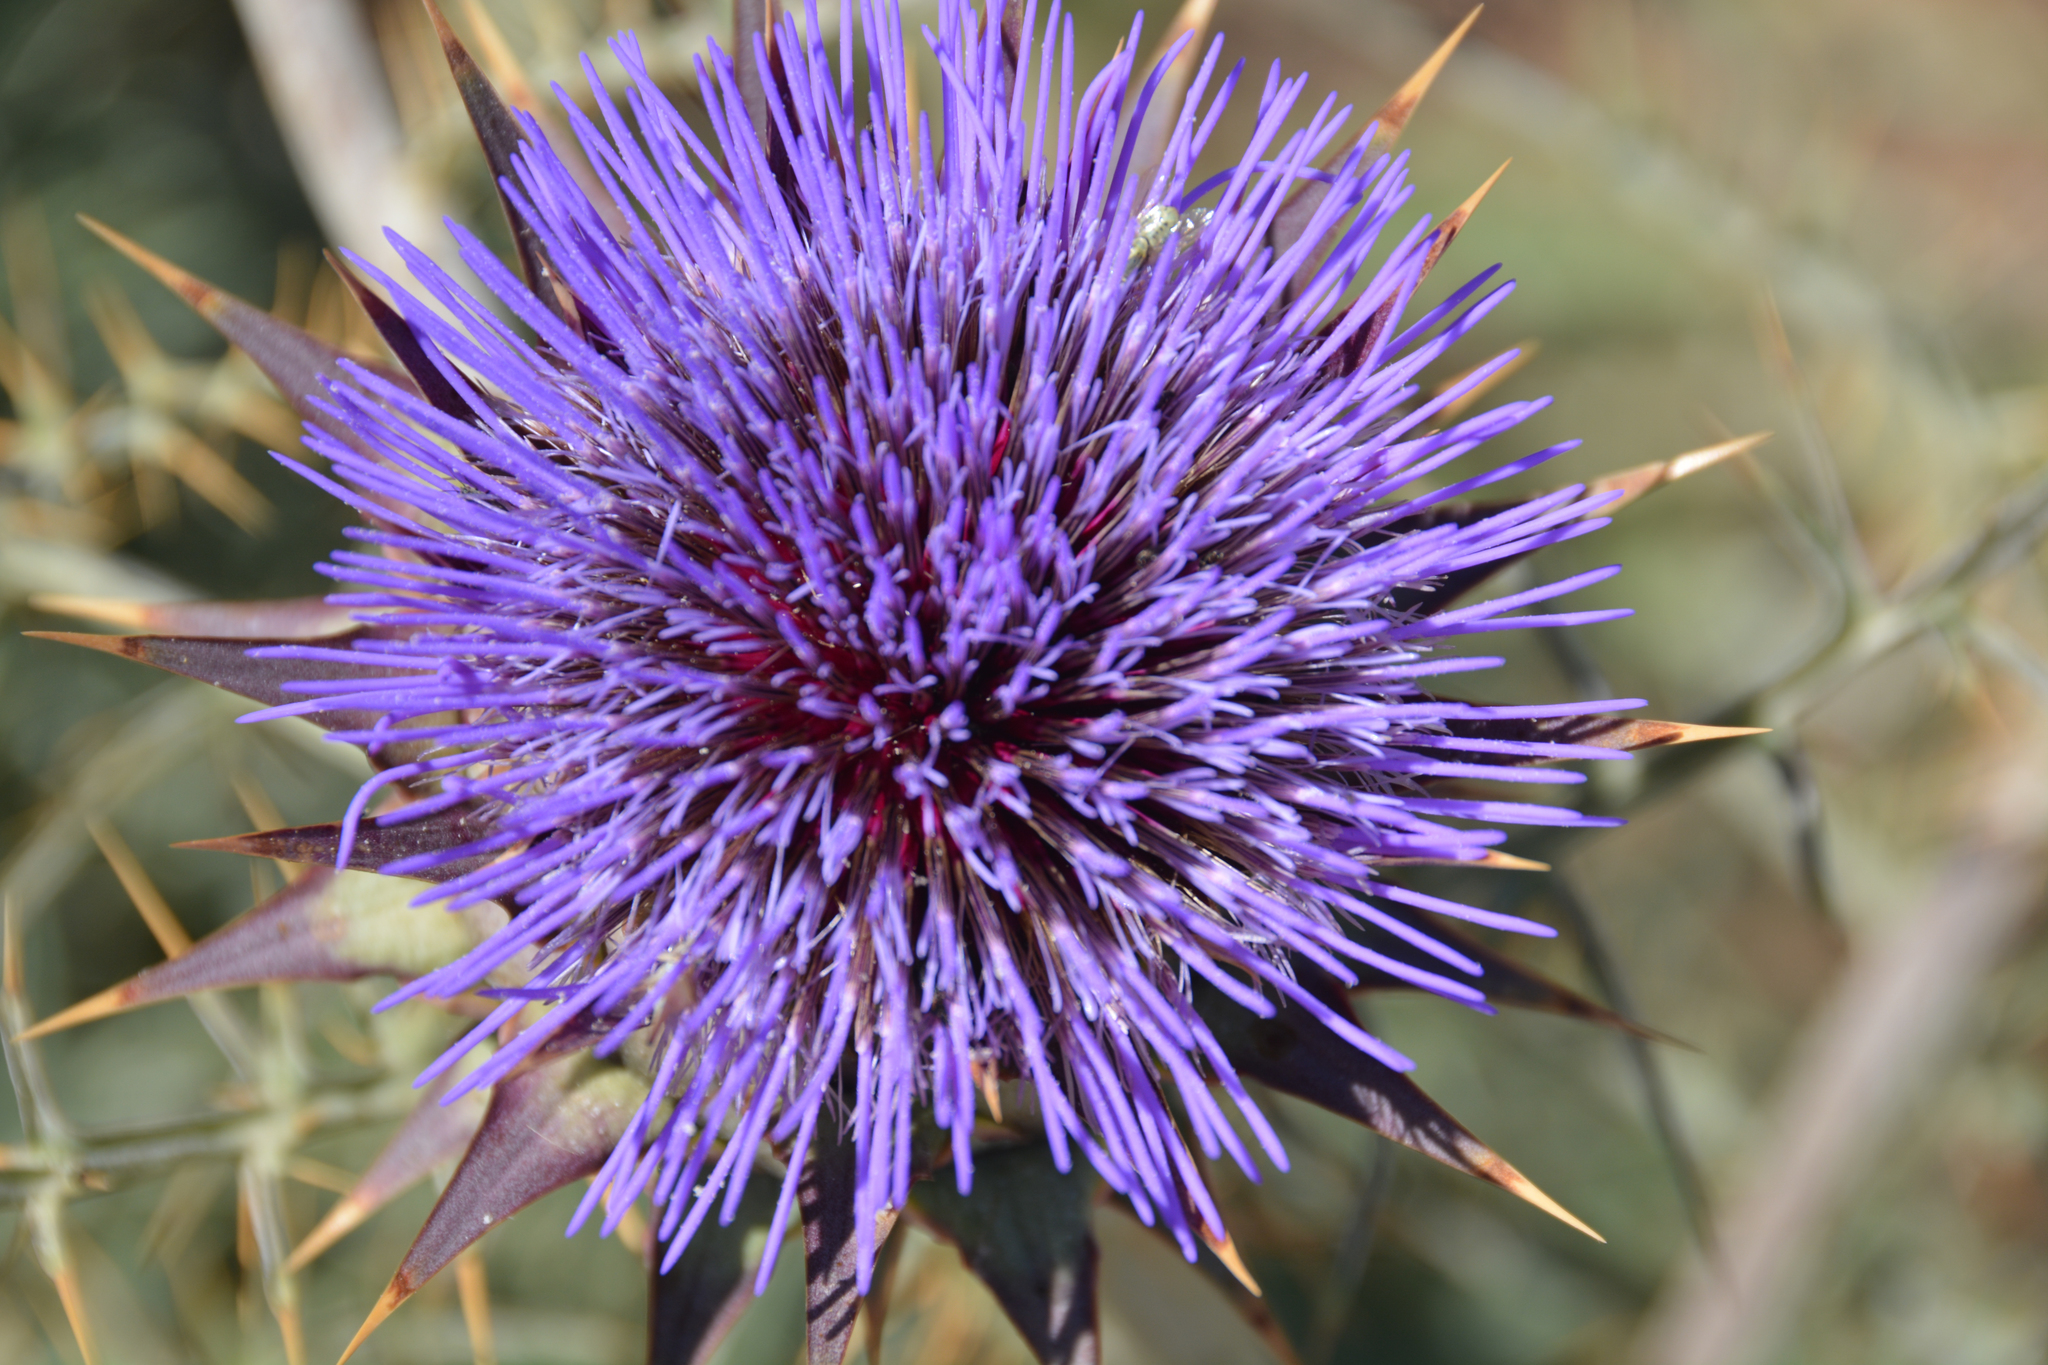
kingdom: Plantae
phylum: Tracheophyta
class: Magnoliopsida
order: Asterales
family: Asteraceae
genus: Cynara
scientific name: Cynara cardunculus
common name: Globe artichoke
